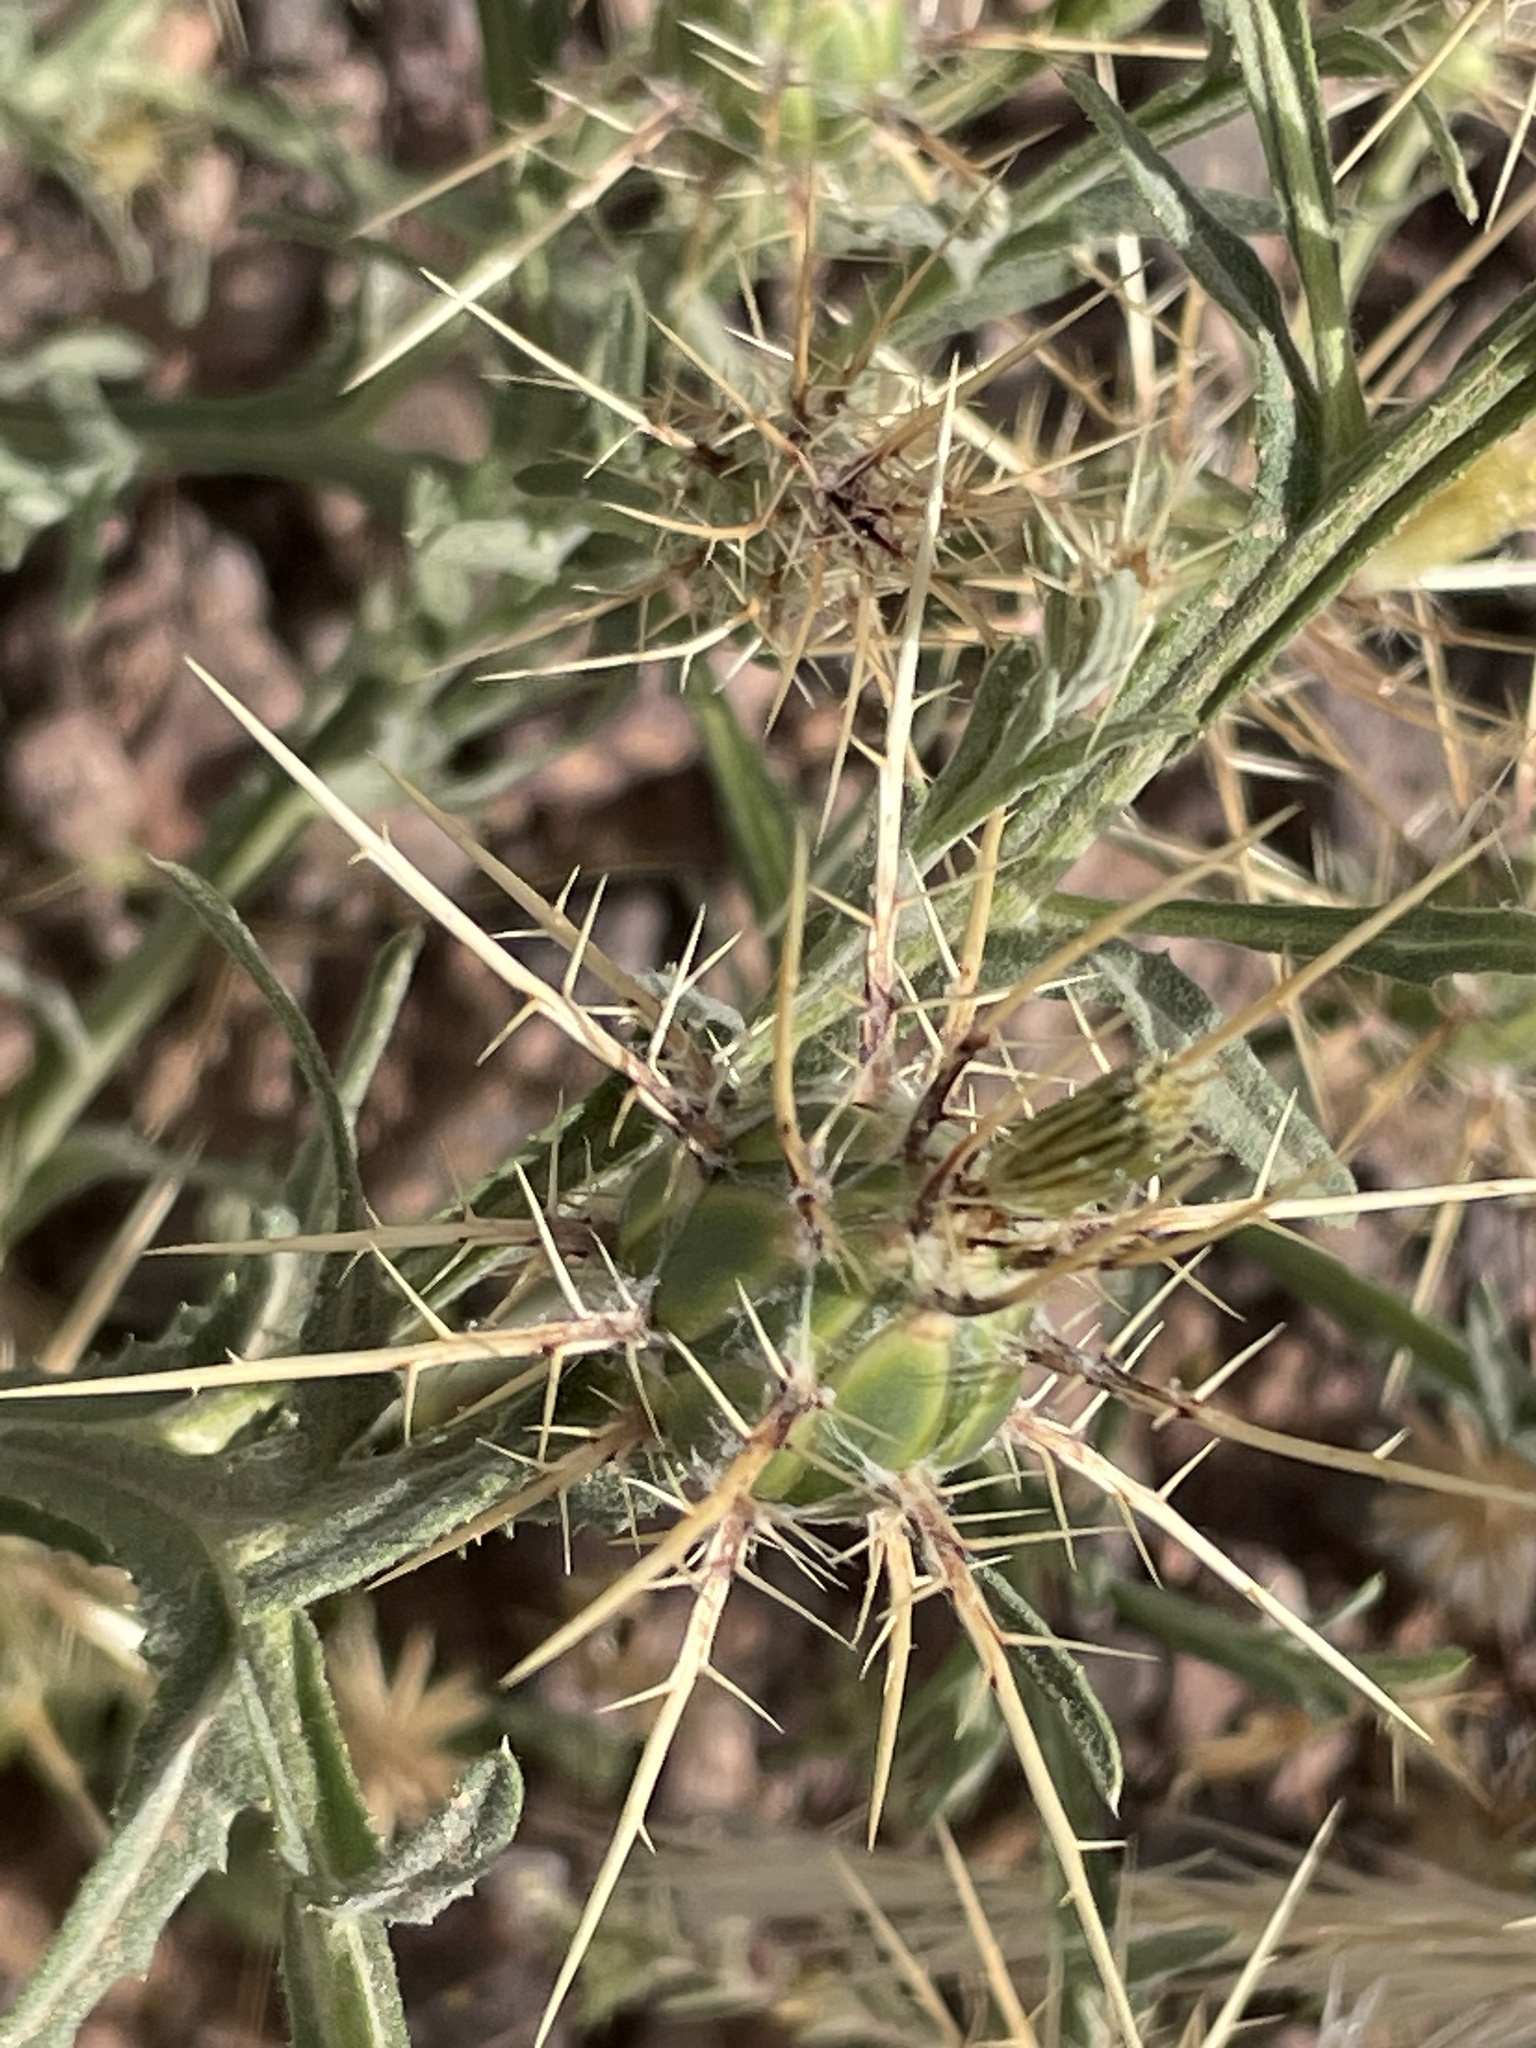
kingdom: Plantae
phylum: Tracheophyta
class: Magnoliopsida
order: Asterales
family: Asteraceae
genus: Centaurea
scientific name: Centaurea maroccana
